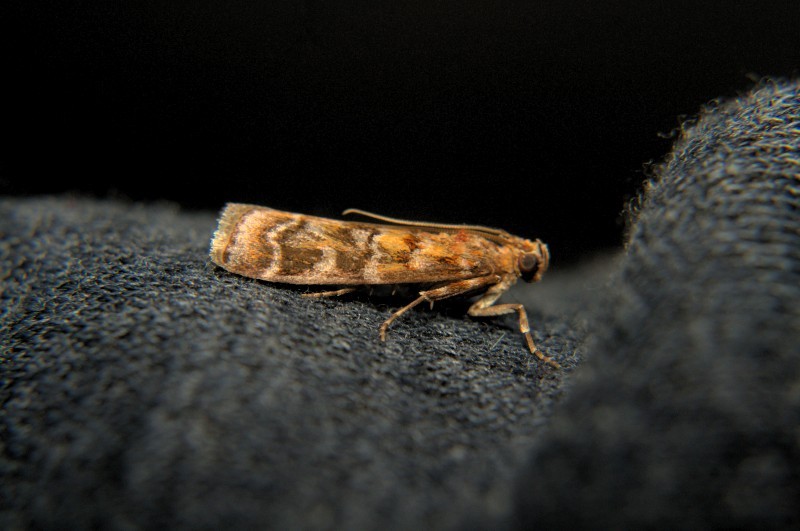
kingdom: Animalia
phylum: Arthropoda
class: Insecta
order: Lepidoptera
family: Pyralidae
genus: Dioryctria
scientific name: Dioryctria rubella
